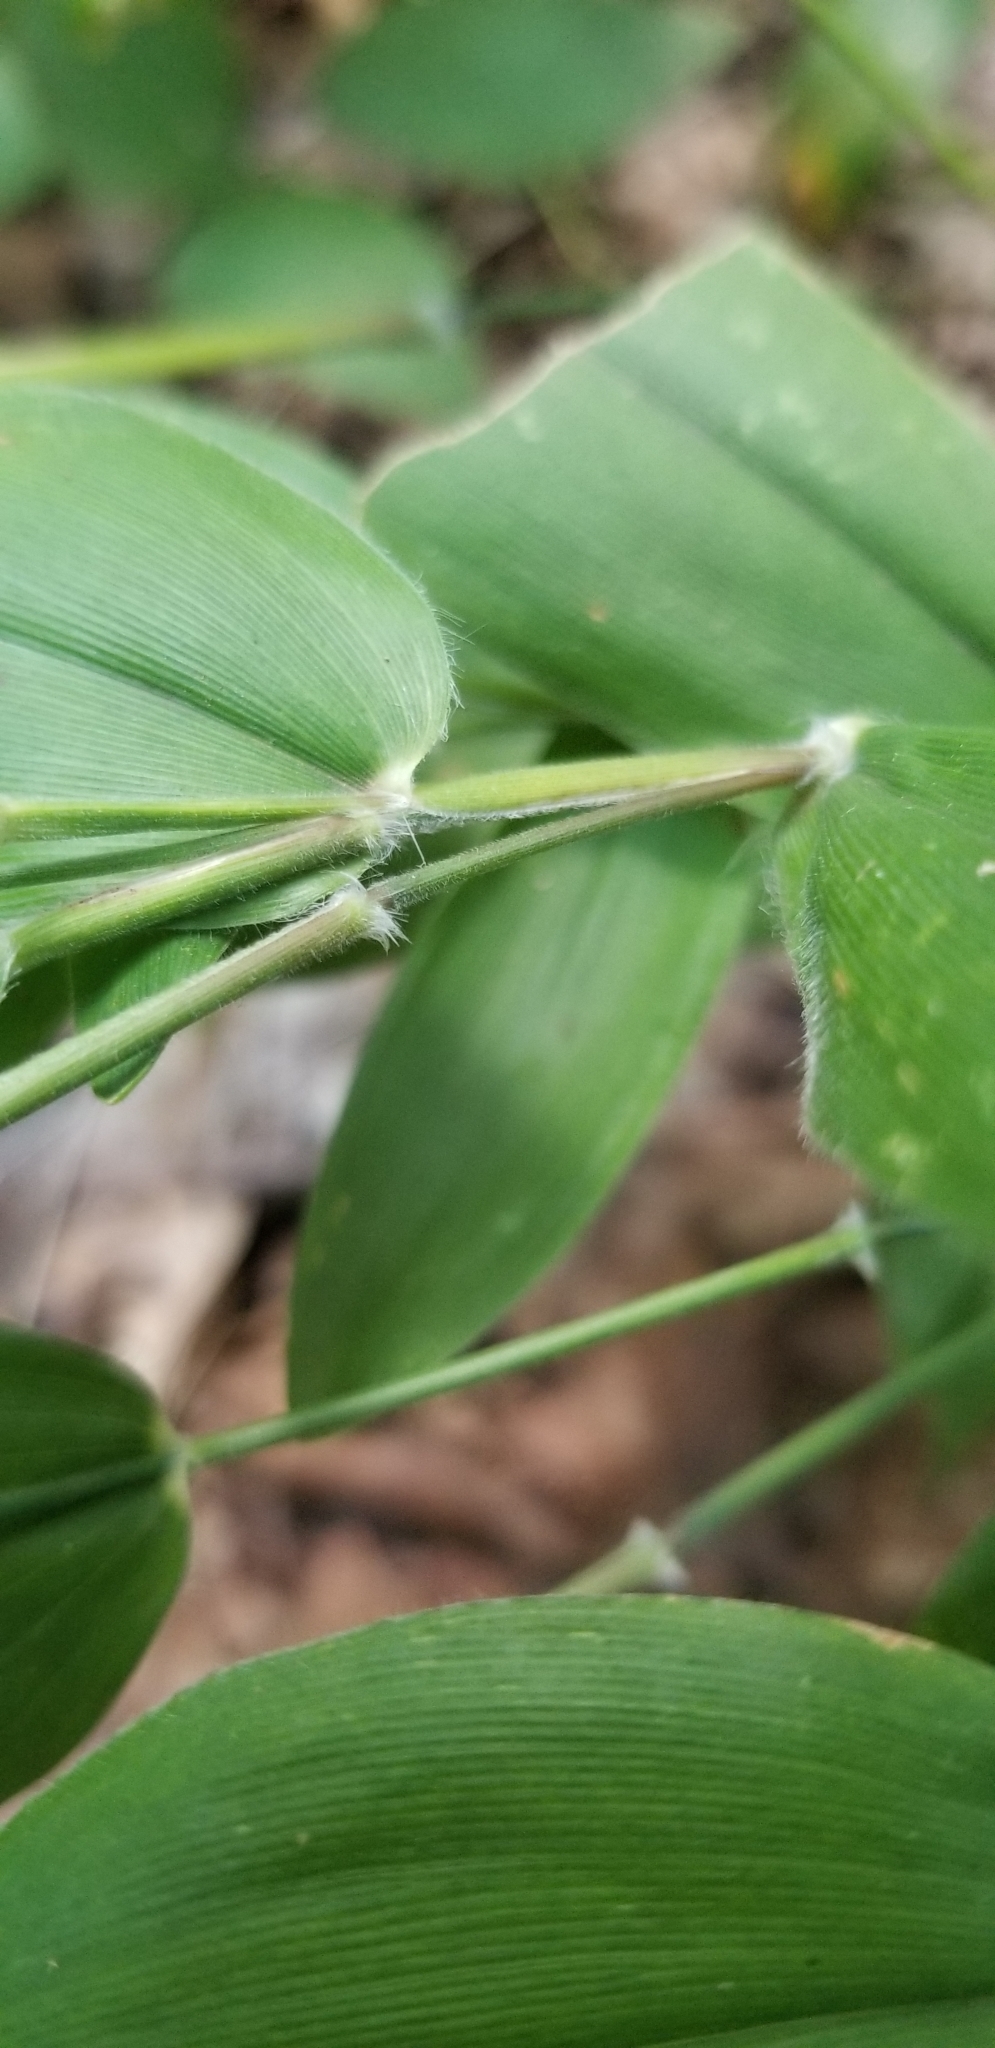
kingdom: Plantae
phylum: Tracheophyta
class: Liliopsida
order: Poales
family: Poaceae
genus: Dichanthelium
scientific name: Dichanthelium boscii
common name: Bosc's panic grass
